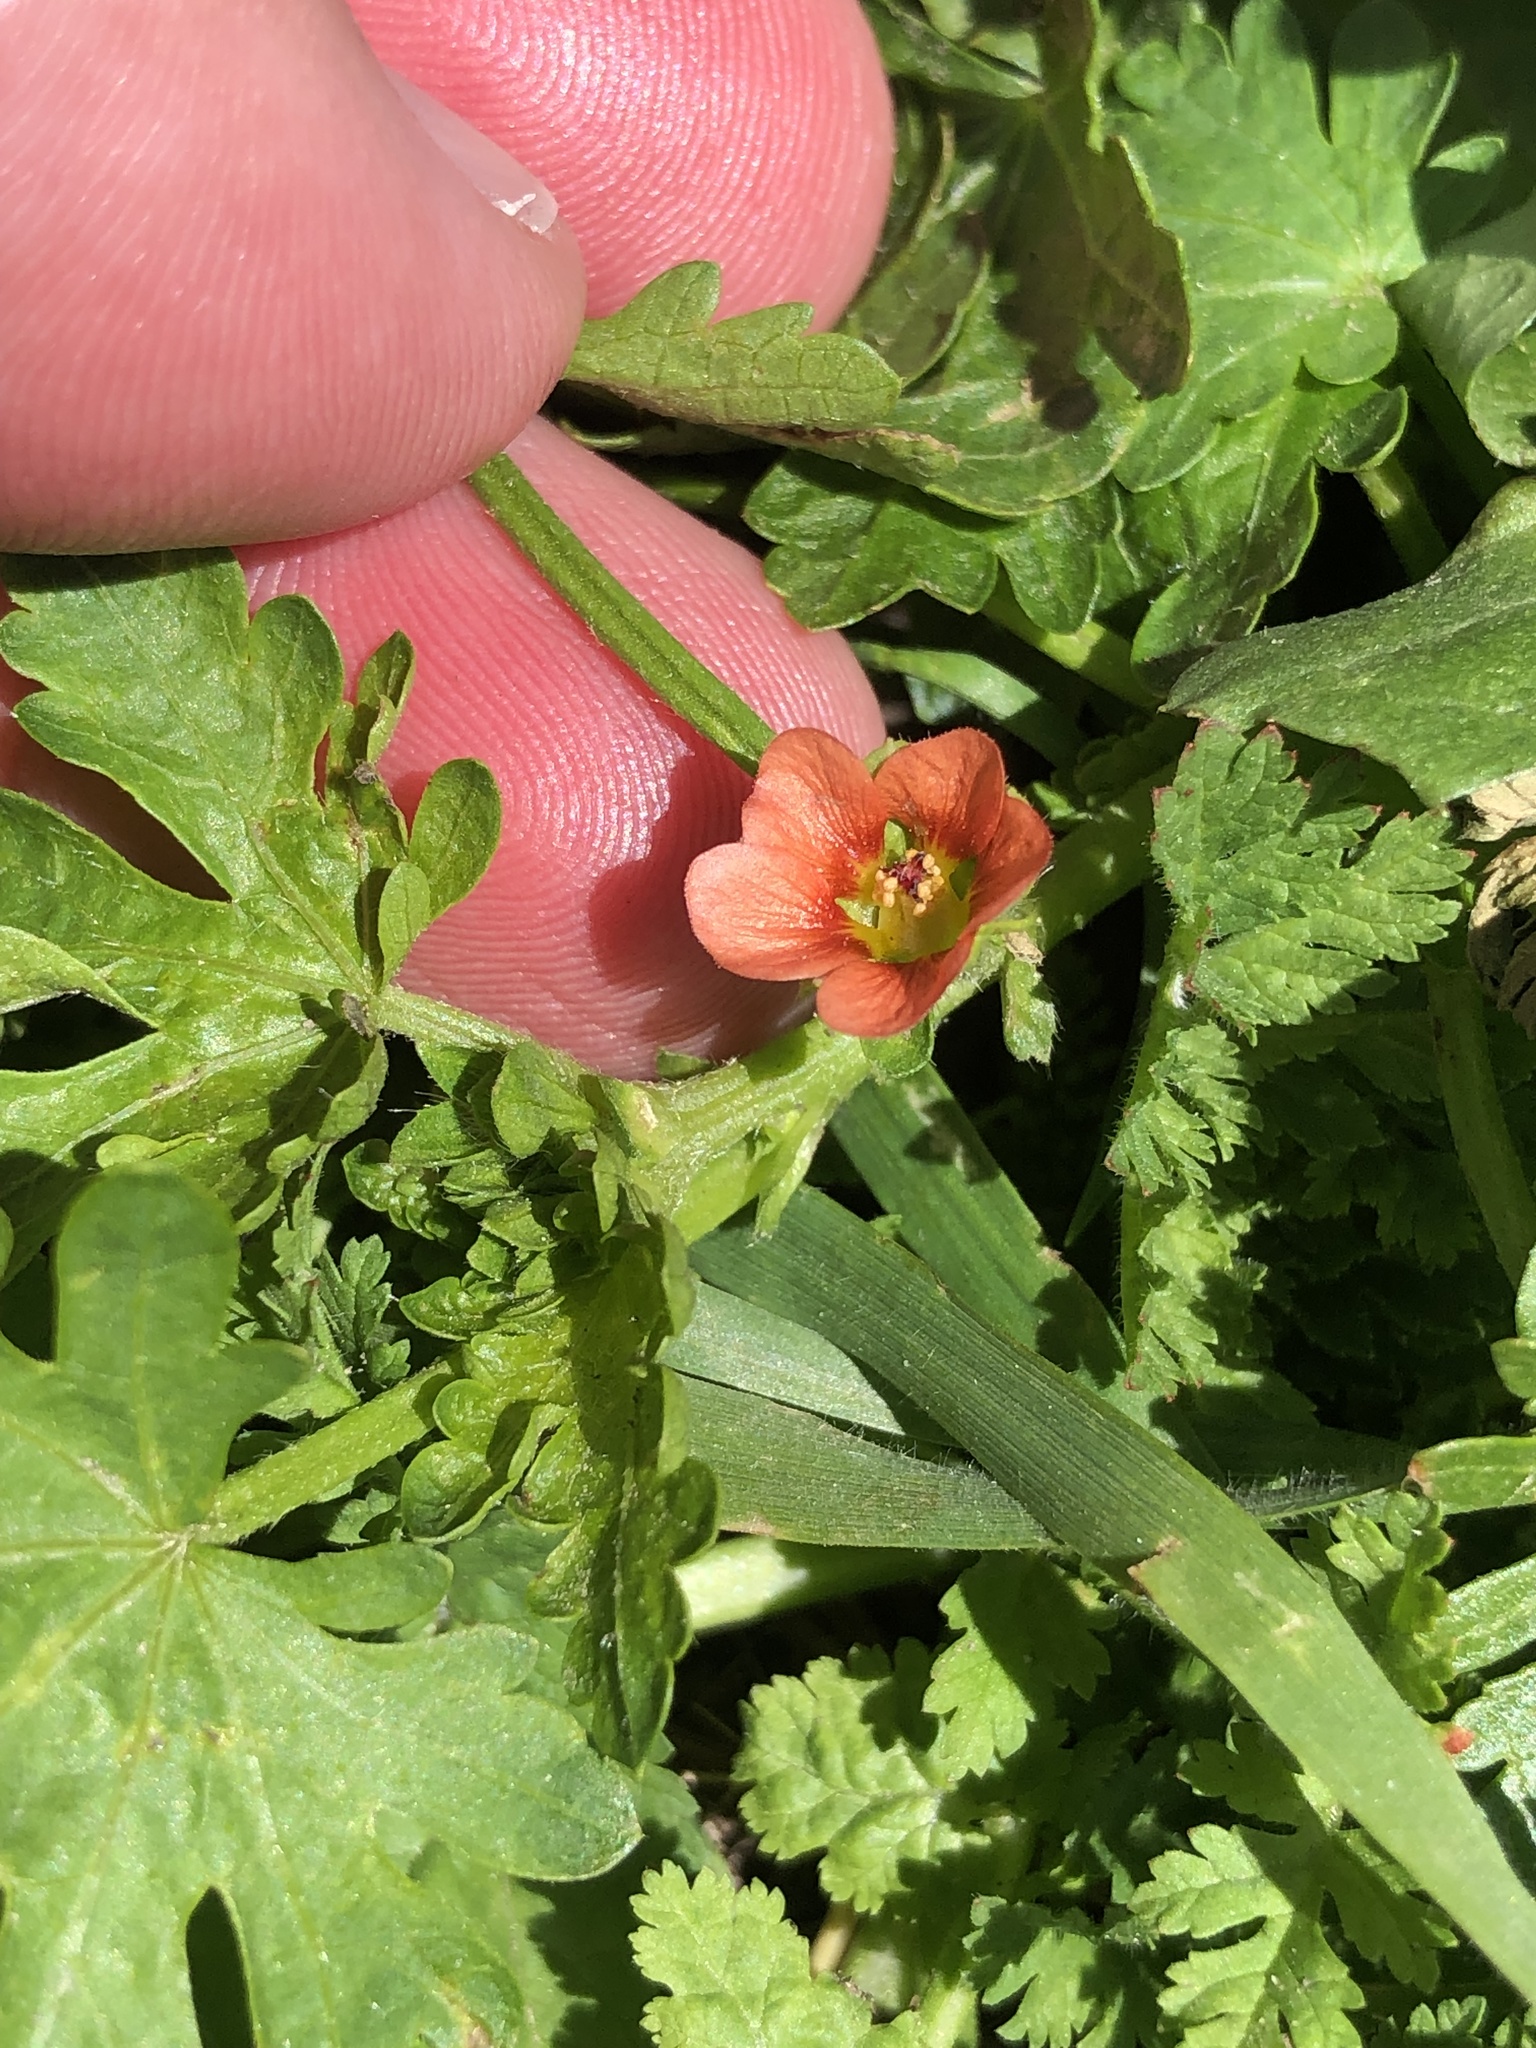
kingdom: Plantae
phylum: Tracheophyta
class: Magnoliopsida
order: Malvales
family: Malvaceae
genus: Modiola
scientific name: Modiola caroliniana
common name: Carolina bristlemallow
